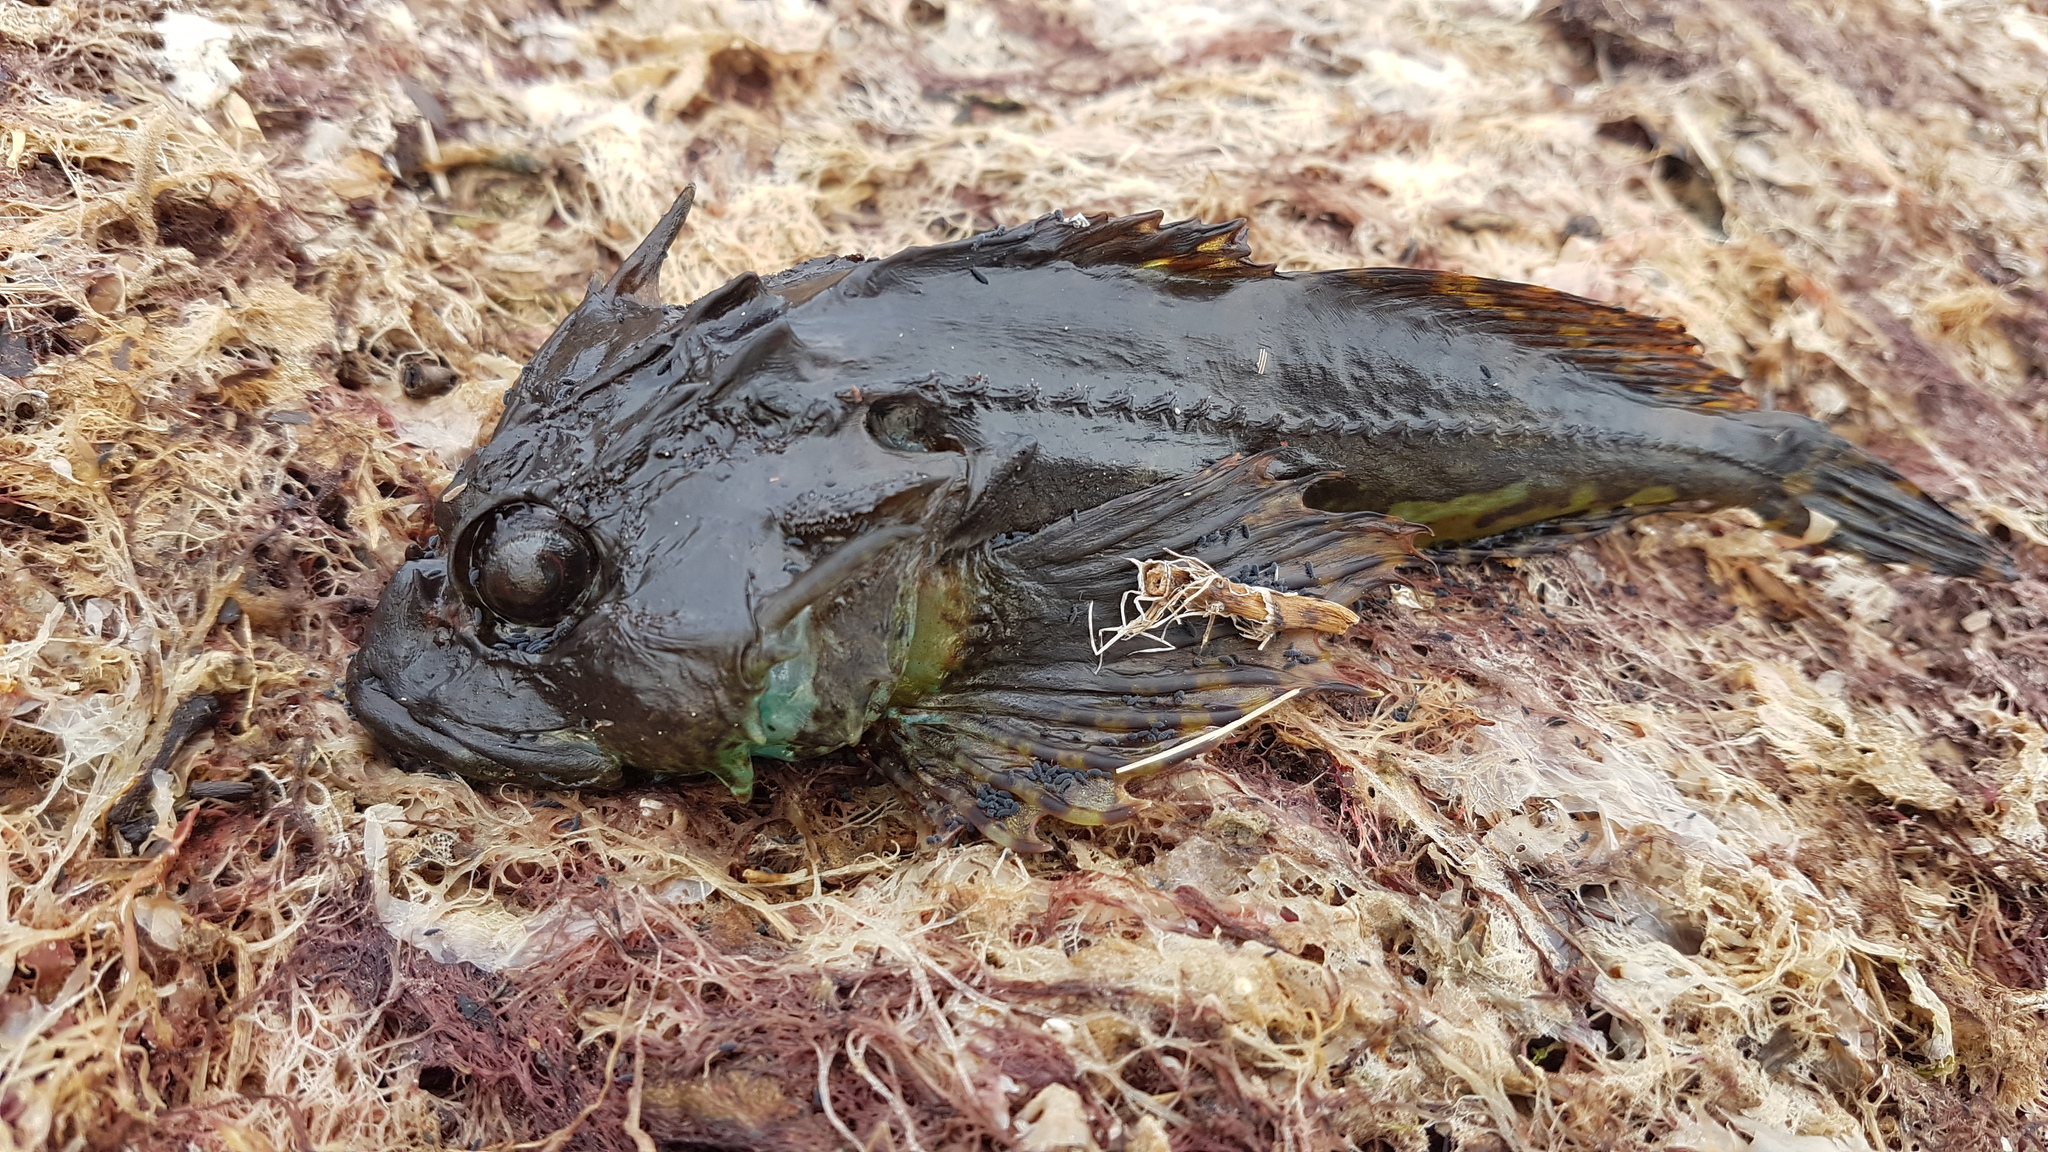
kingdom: Animalia
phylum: Chordata
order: Scorpaeniformes
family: Cottidae
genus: Taurulus
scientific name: Taurulus bubalis
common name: Sea scorpion
